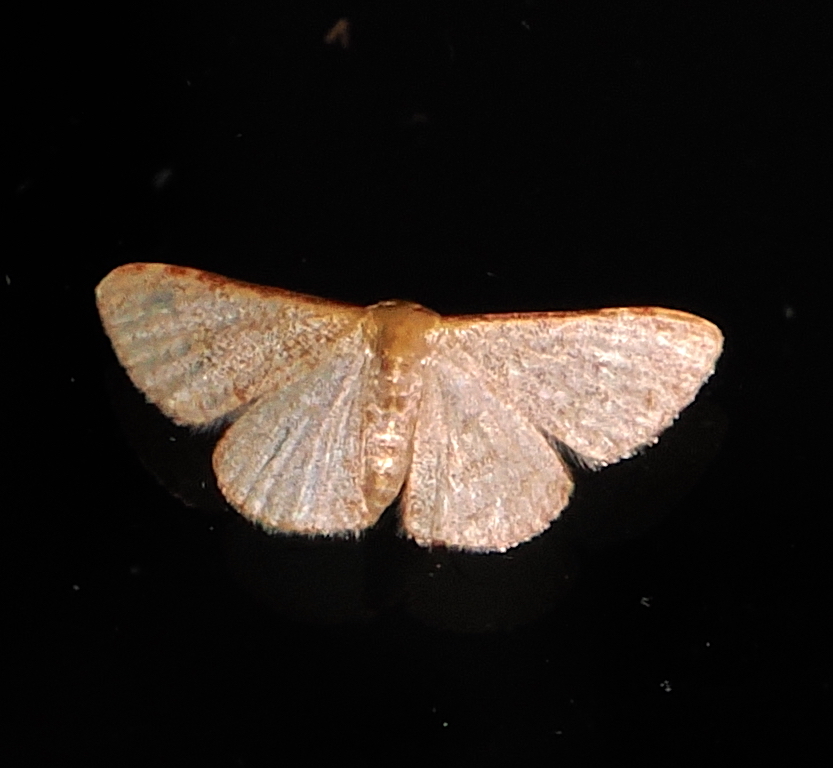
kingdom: Animalia
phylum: Arthropoda
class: Insecta
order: Lepidoptera
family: Geometridae
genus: Leptostales
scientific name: Leptostales pannaria
